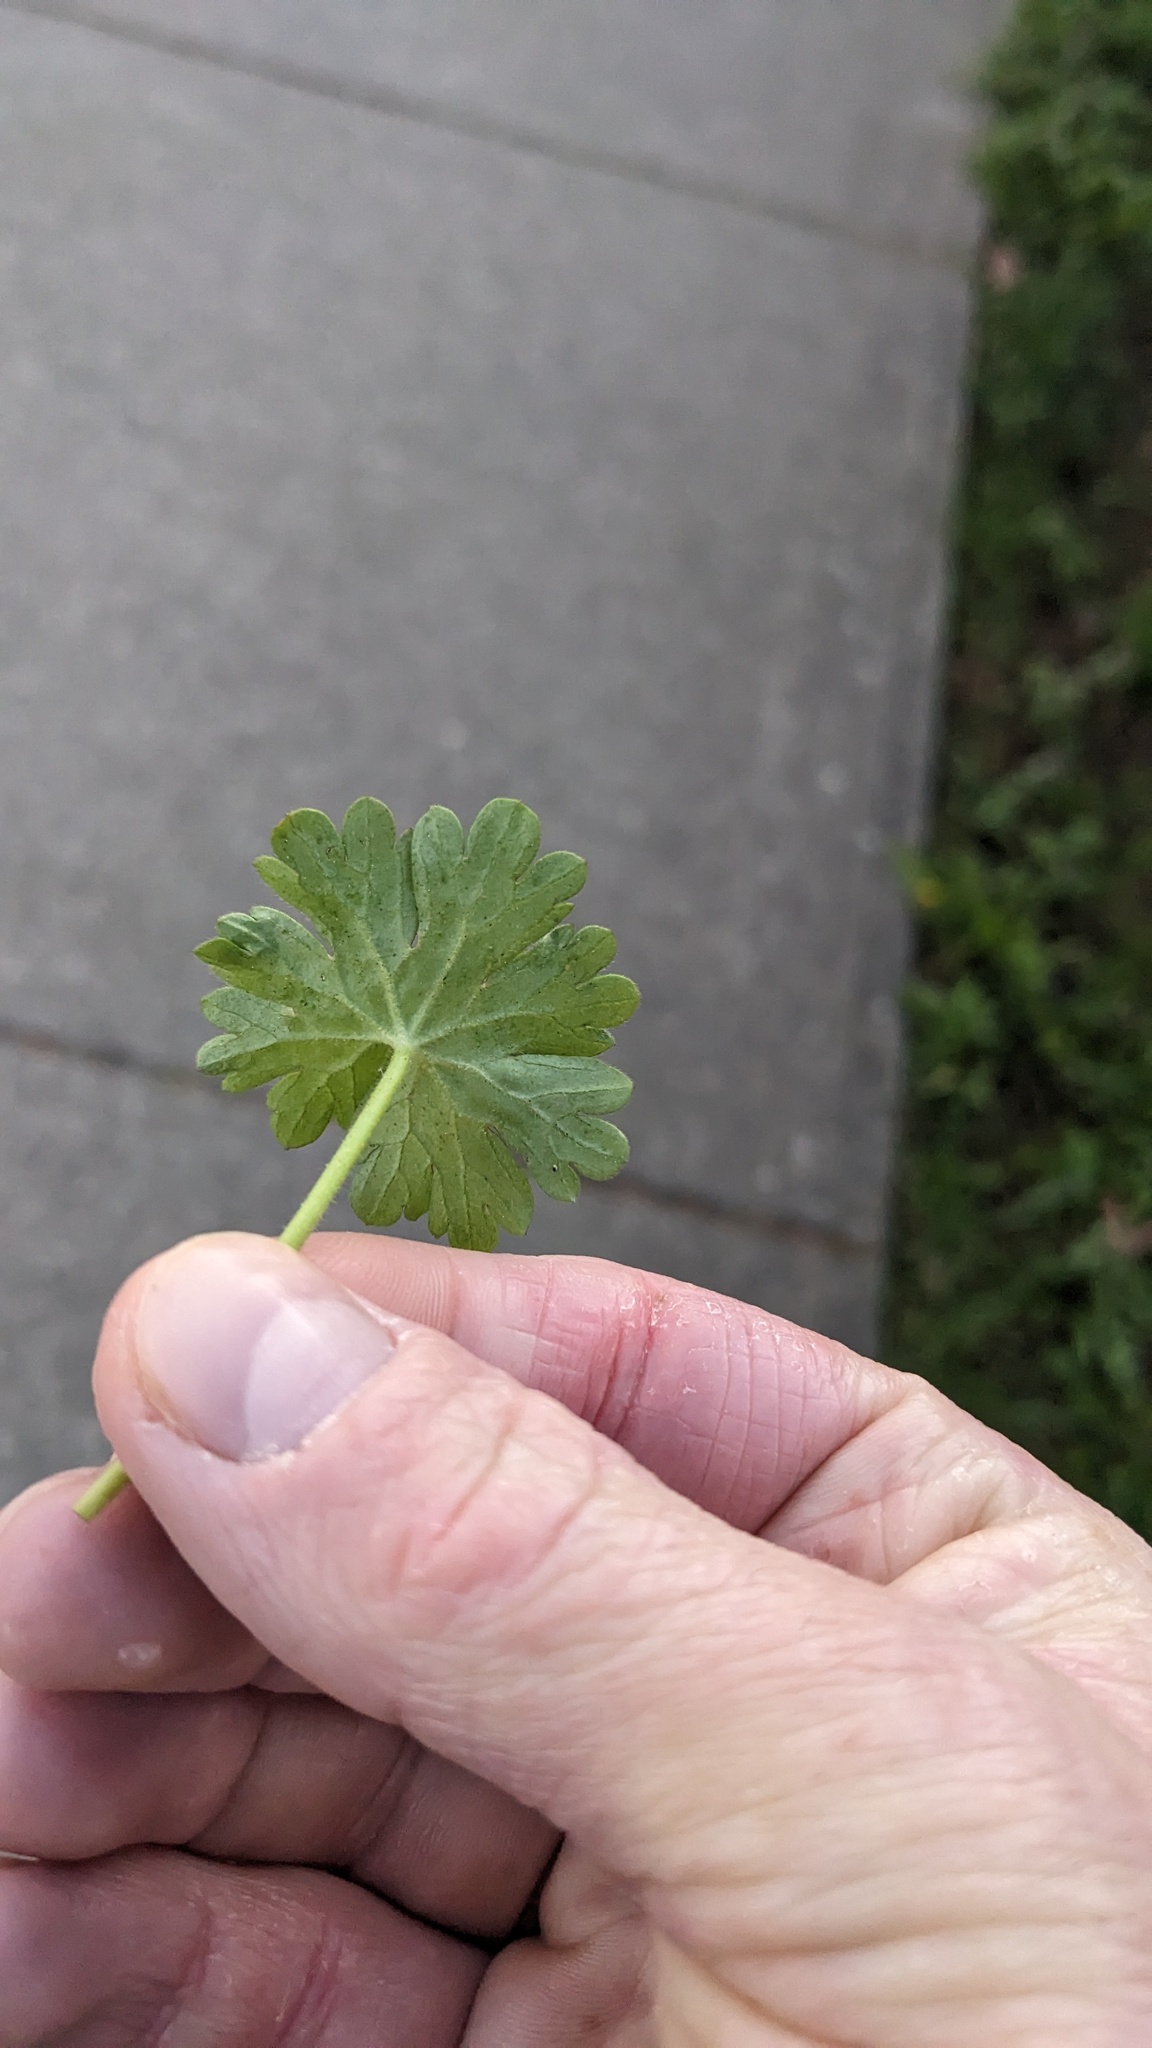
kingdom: Plantae
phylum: Tracheophyta
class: Magnoliopsida
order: Geraniales
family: Geraniaceae
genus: Geranium
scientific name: Geranium molle
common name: Dove's-foot crane's-bill
